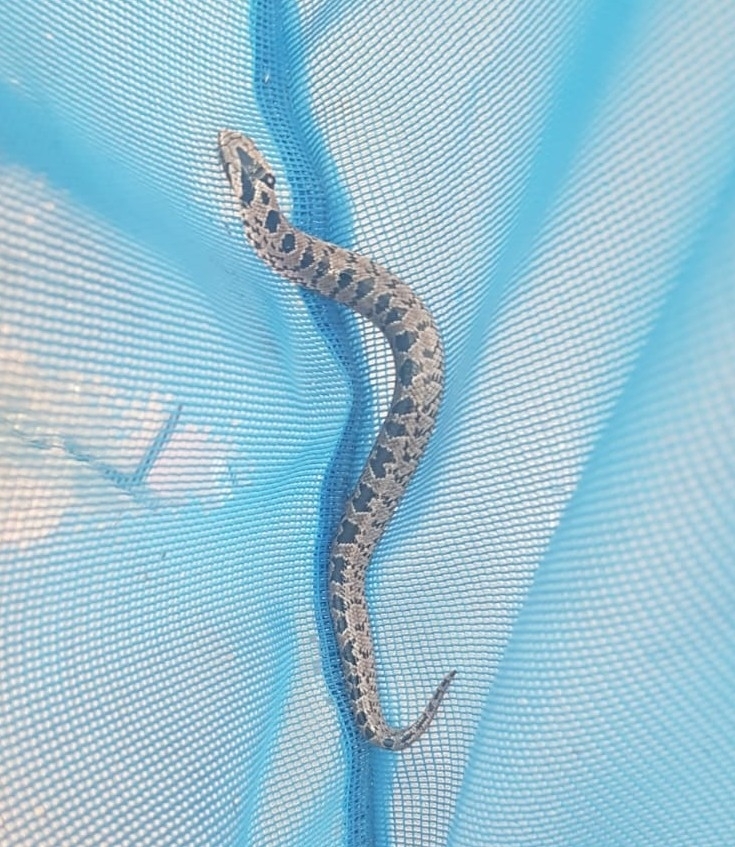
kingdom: Animalia
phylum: Chordata
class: Squamata
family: Viperidae
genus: Causus
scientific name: Causus rhombeatus
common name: Common night adder
